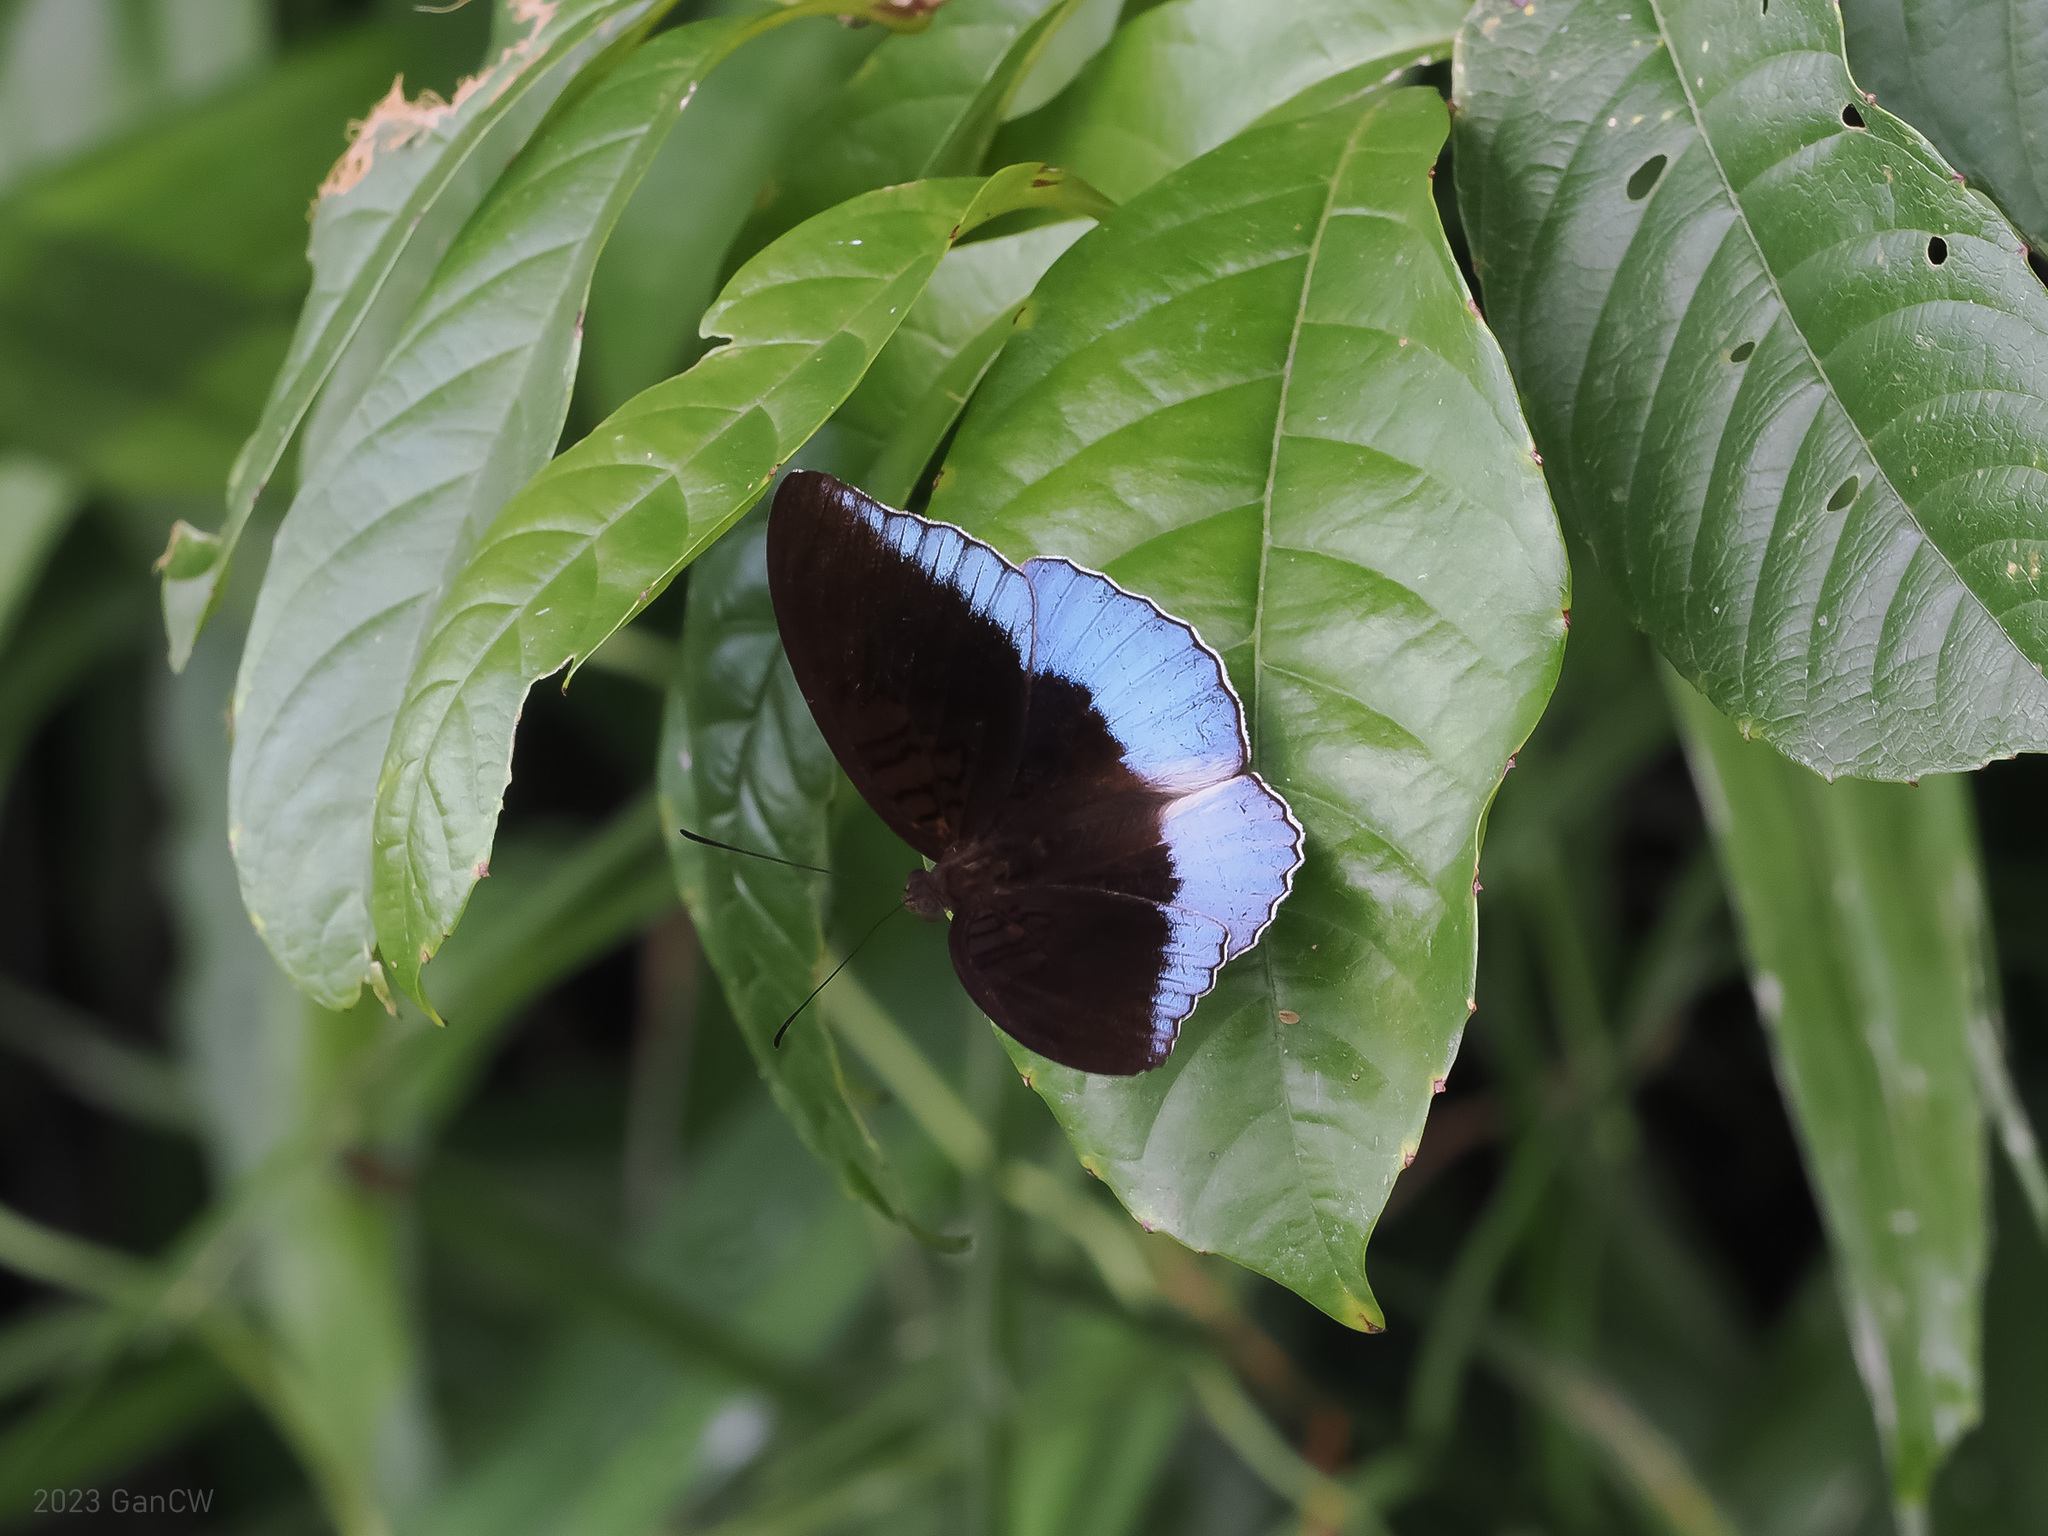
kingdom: Animalia
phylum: Arthropoda
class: Insecta
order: Lepidoptera
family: Nymphalidae
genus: Tanaecia
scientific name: Tanaecia iapis
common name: Horsfield's baron
